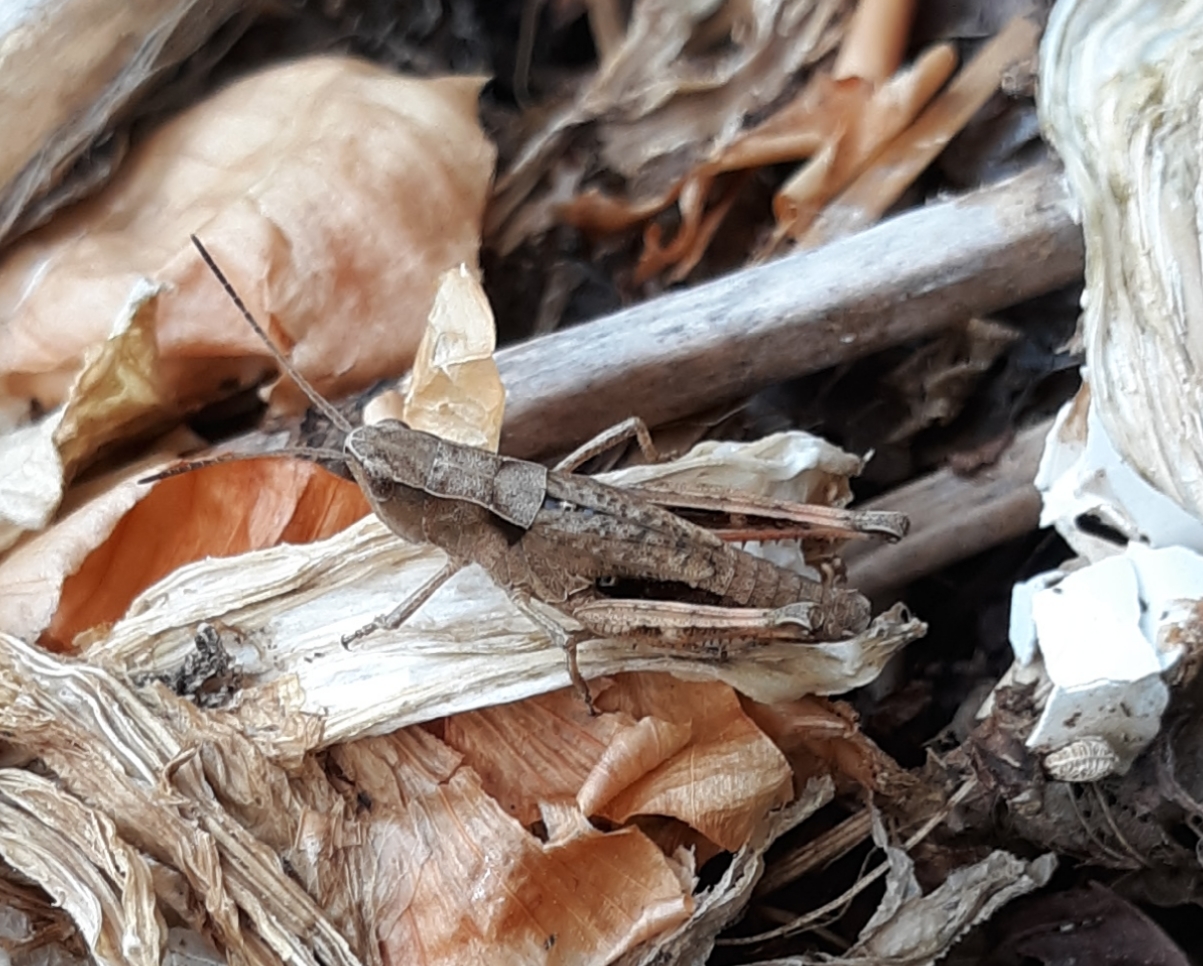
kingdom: Animalia
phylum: Arthropoda
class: Insecta
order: Orthoptera
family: Acrididae
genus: Chloealtis
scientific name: Chloealtis conspersa
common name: Sprinkled broad-winged grasshopper
